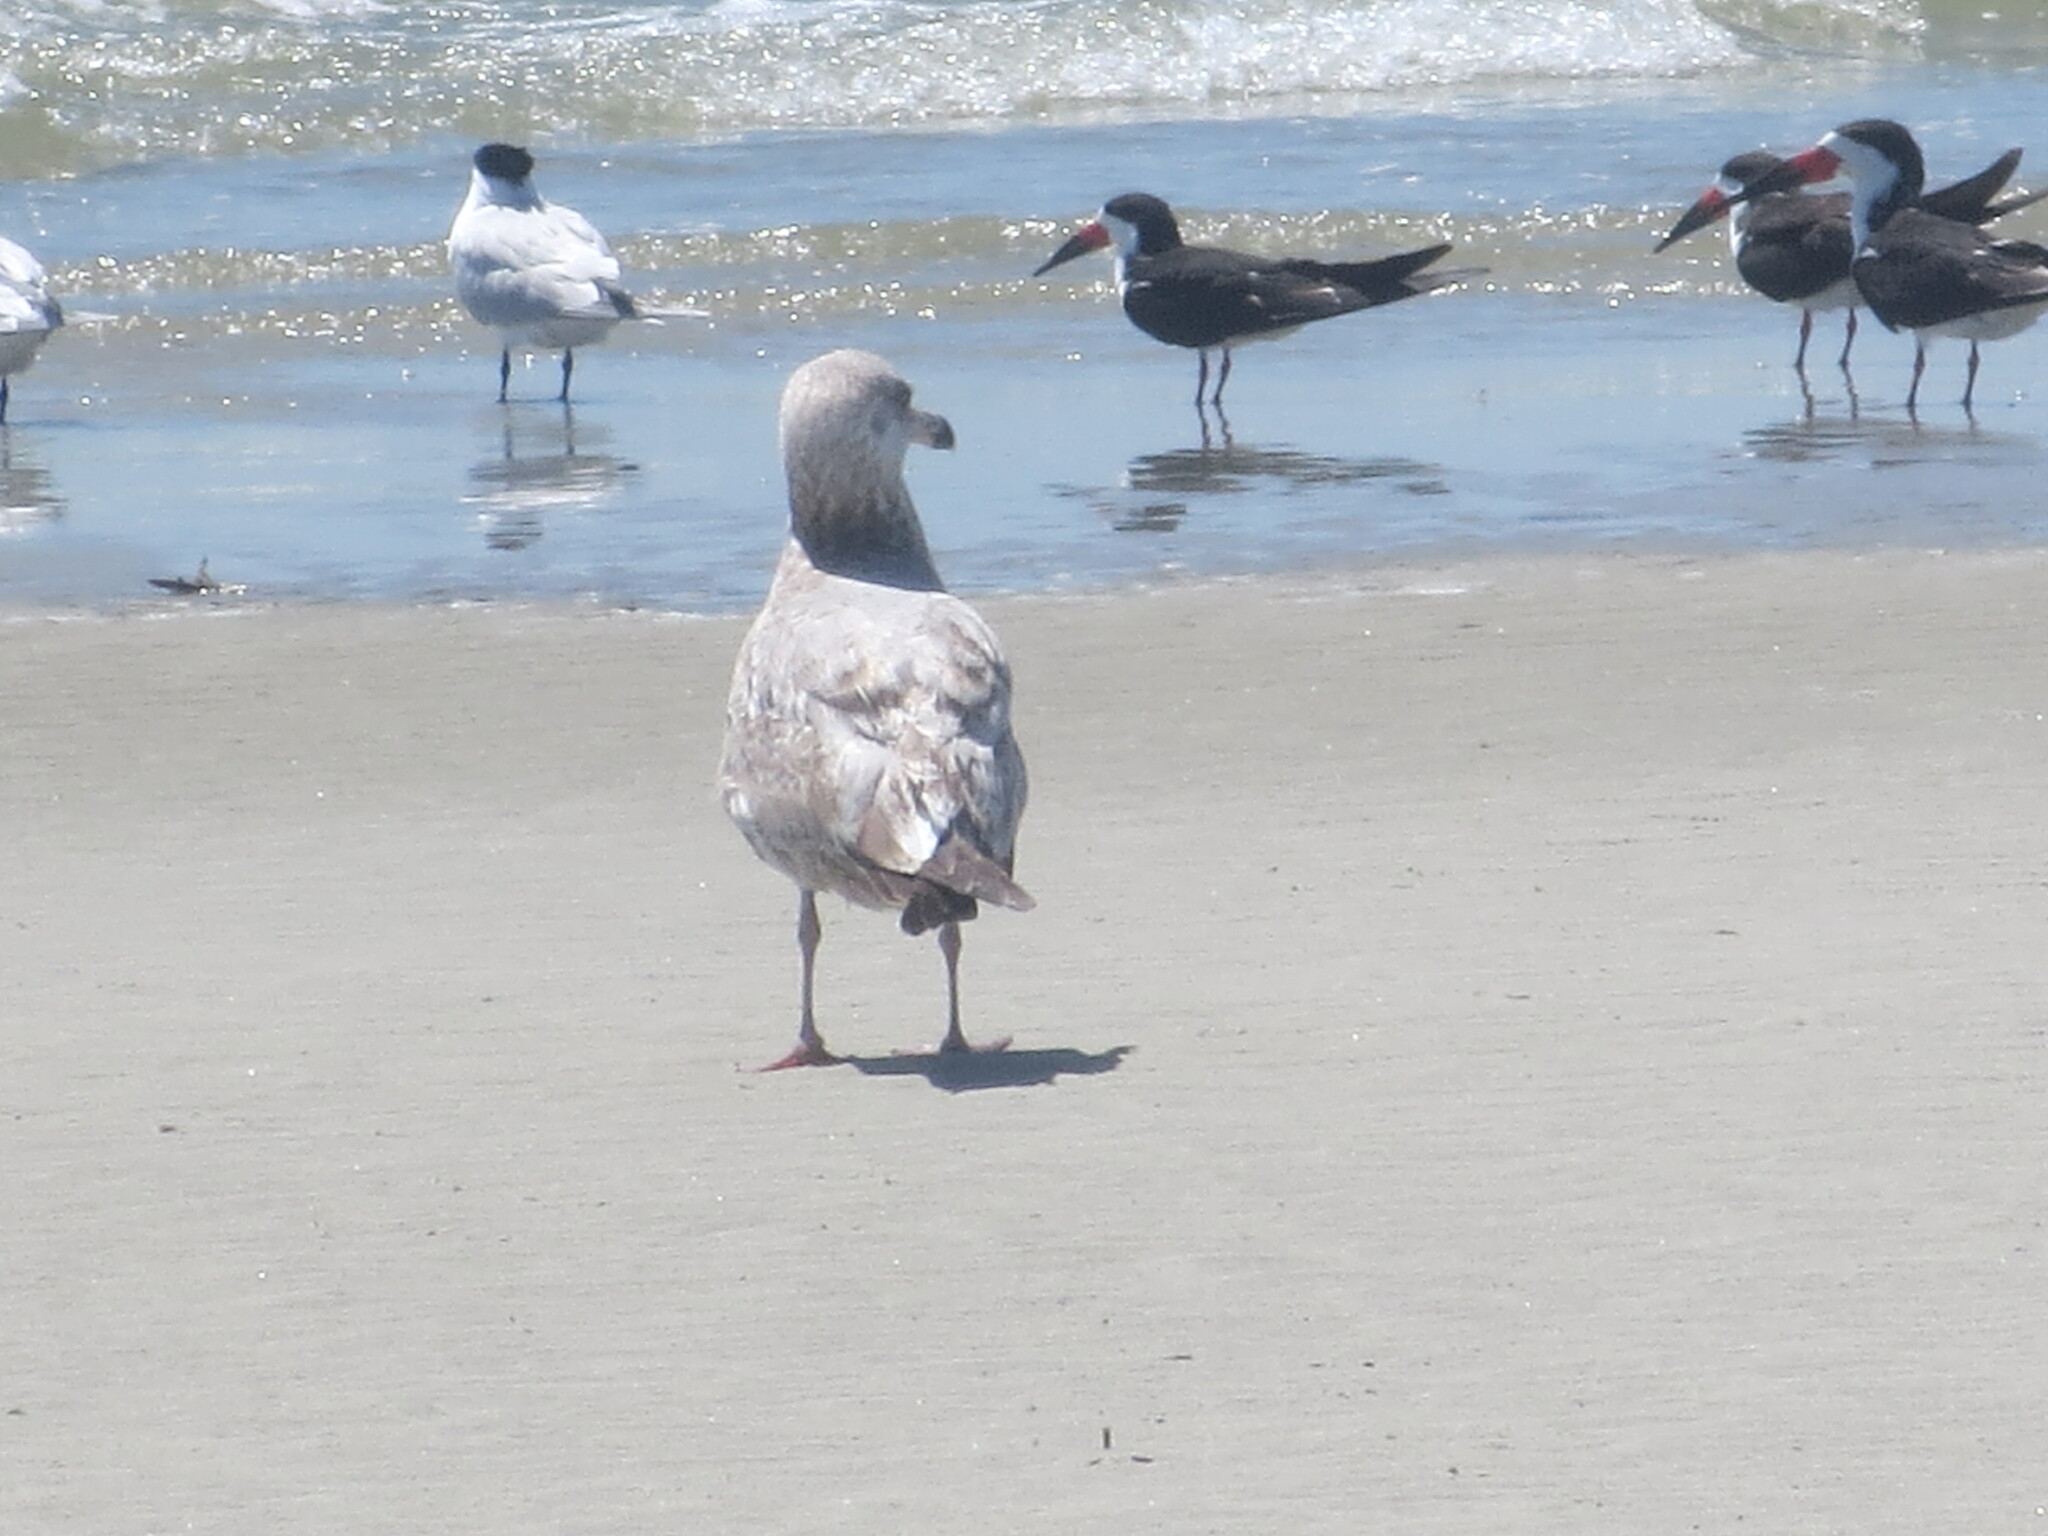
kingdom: Animalia
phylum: Chordata
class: Aves
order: Charadriiformes
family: Laridae
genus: Rynchops
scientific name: Rynchops niger
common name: Black skimmer
